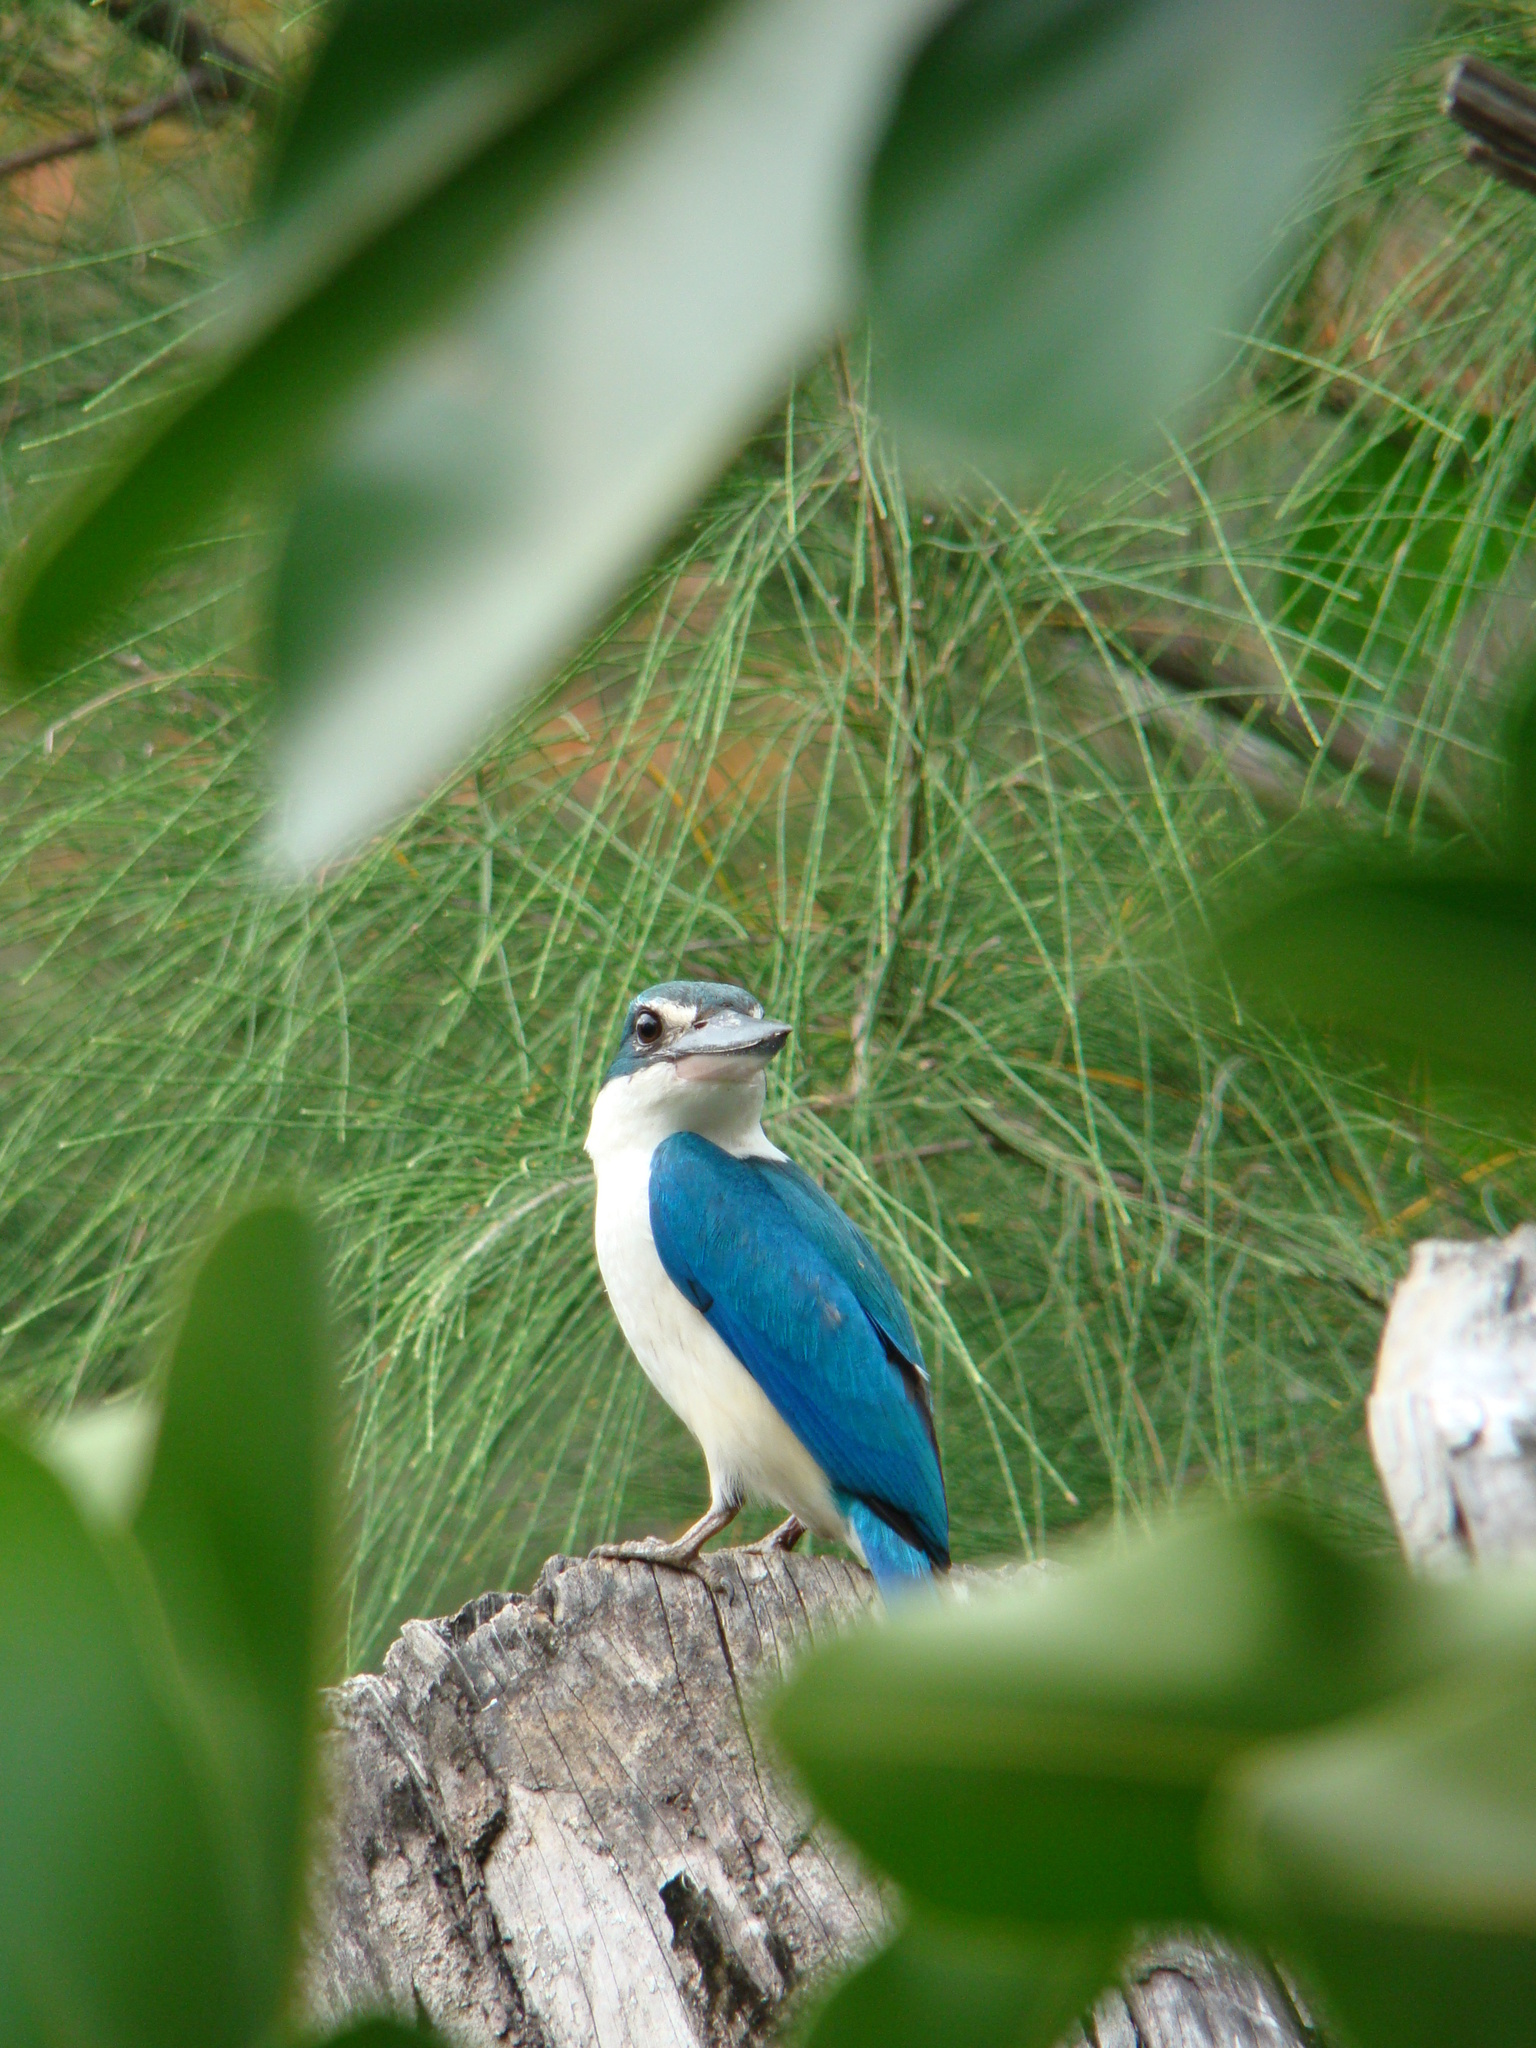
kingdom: Animalia
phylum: Chordata
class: Aves
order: Coraciiformes
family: Alcedinidae
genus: Todiramphus
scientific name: Todiramphus chloris
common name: Collared kingfisher
